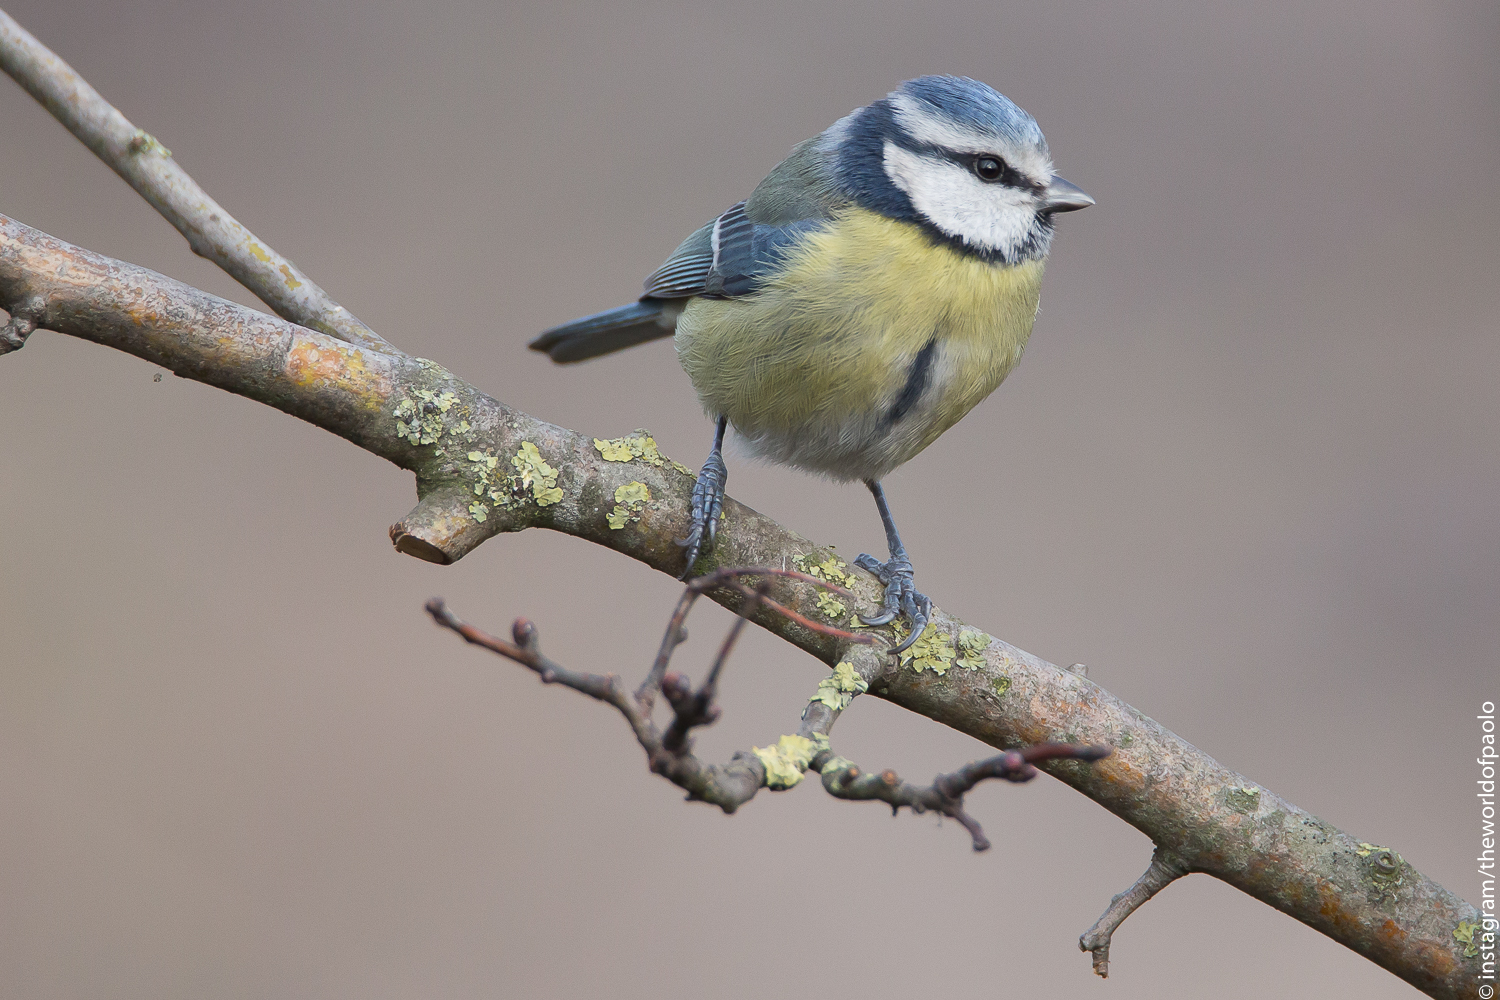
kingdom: Animalia
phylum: Chordata
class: Aves
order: Passeriformes
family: Paridae
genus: Cyanistes
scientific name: Cyanistes caeruleus
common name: Eurasian blue tit
